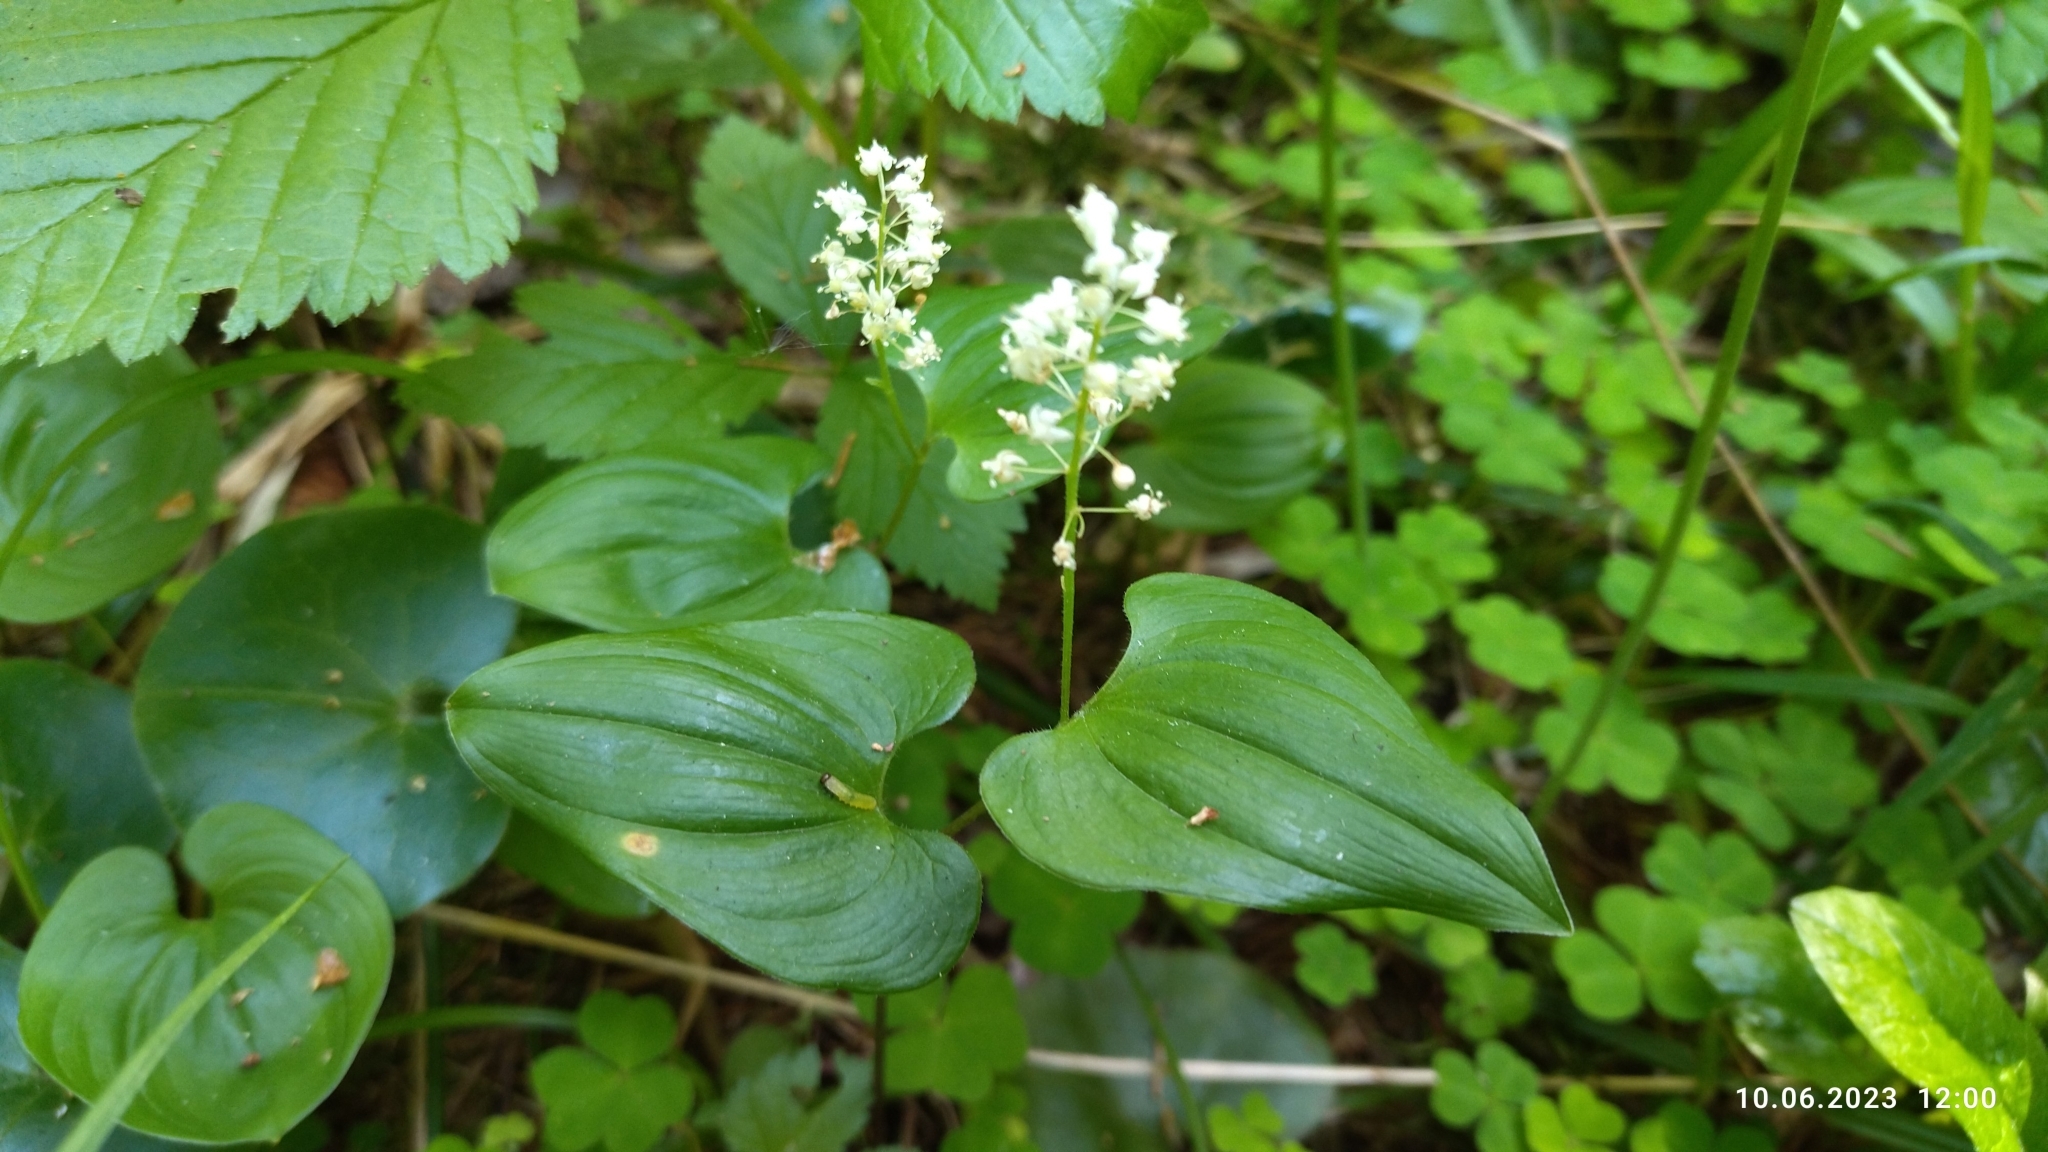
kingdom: Plantae
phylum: Tracheophyta
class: Liliopsida
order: Asparagales
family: Asparagaceae
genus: Maianthemum
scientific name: Maianthemum bifolium
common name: May lily
